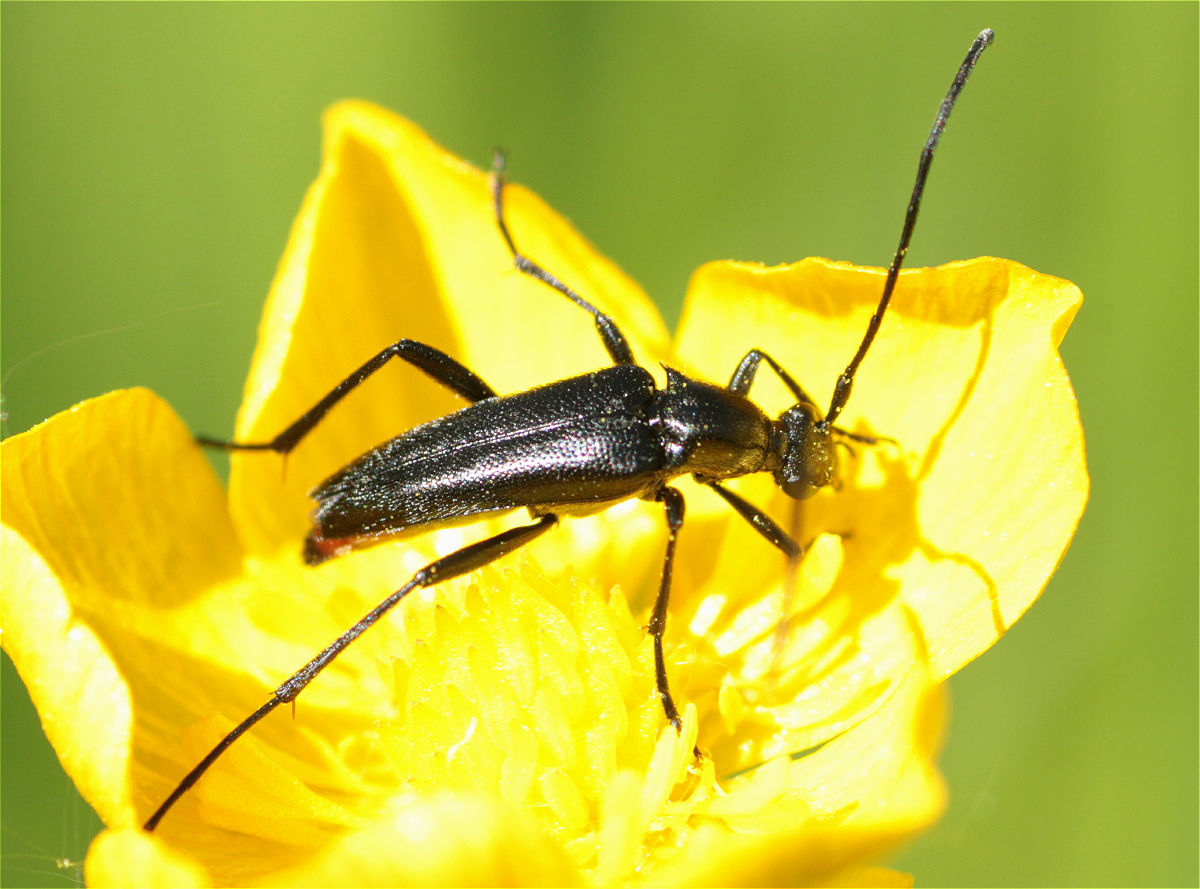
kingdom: Animalia
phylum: Arthropoda
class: Insecta
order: Coleoptera
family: Cerambycidae
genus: Stenurella
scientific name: Stenurella nigra
